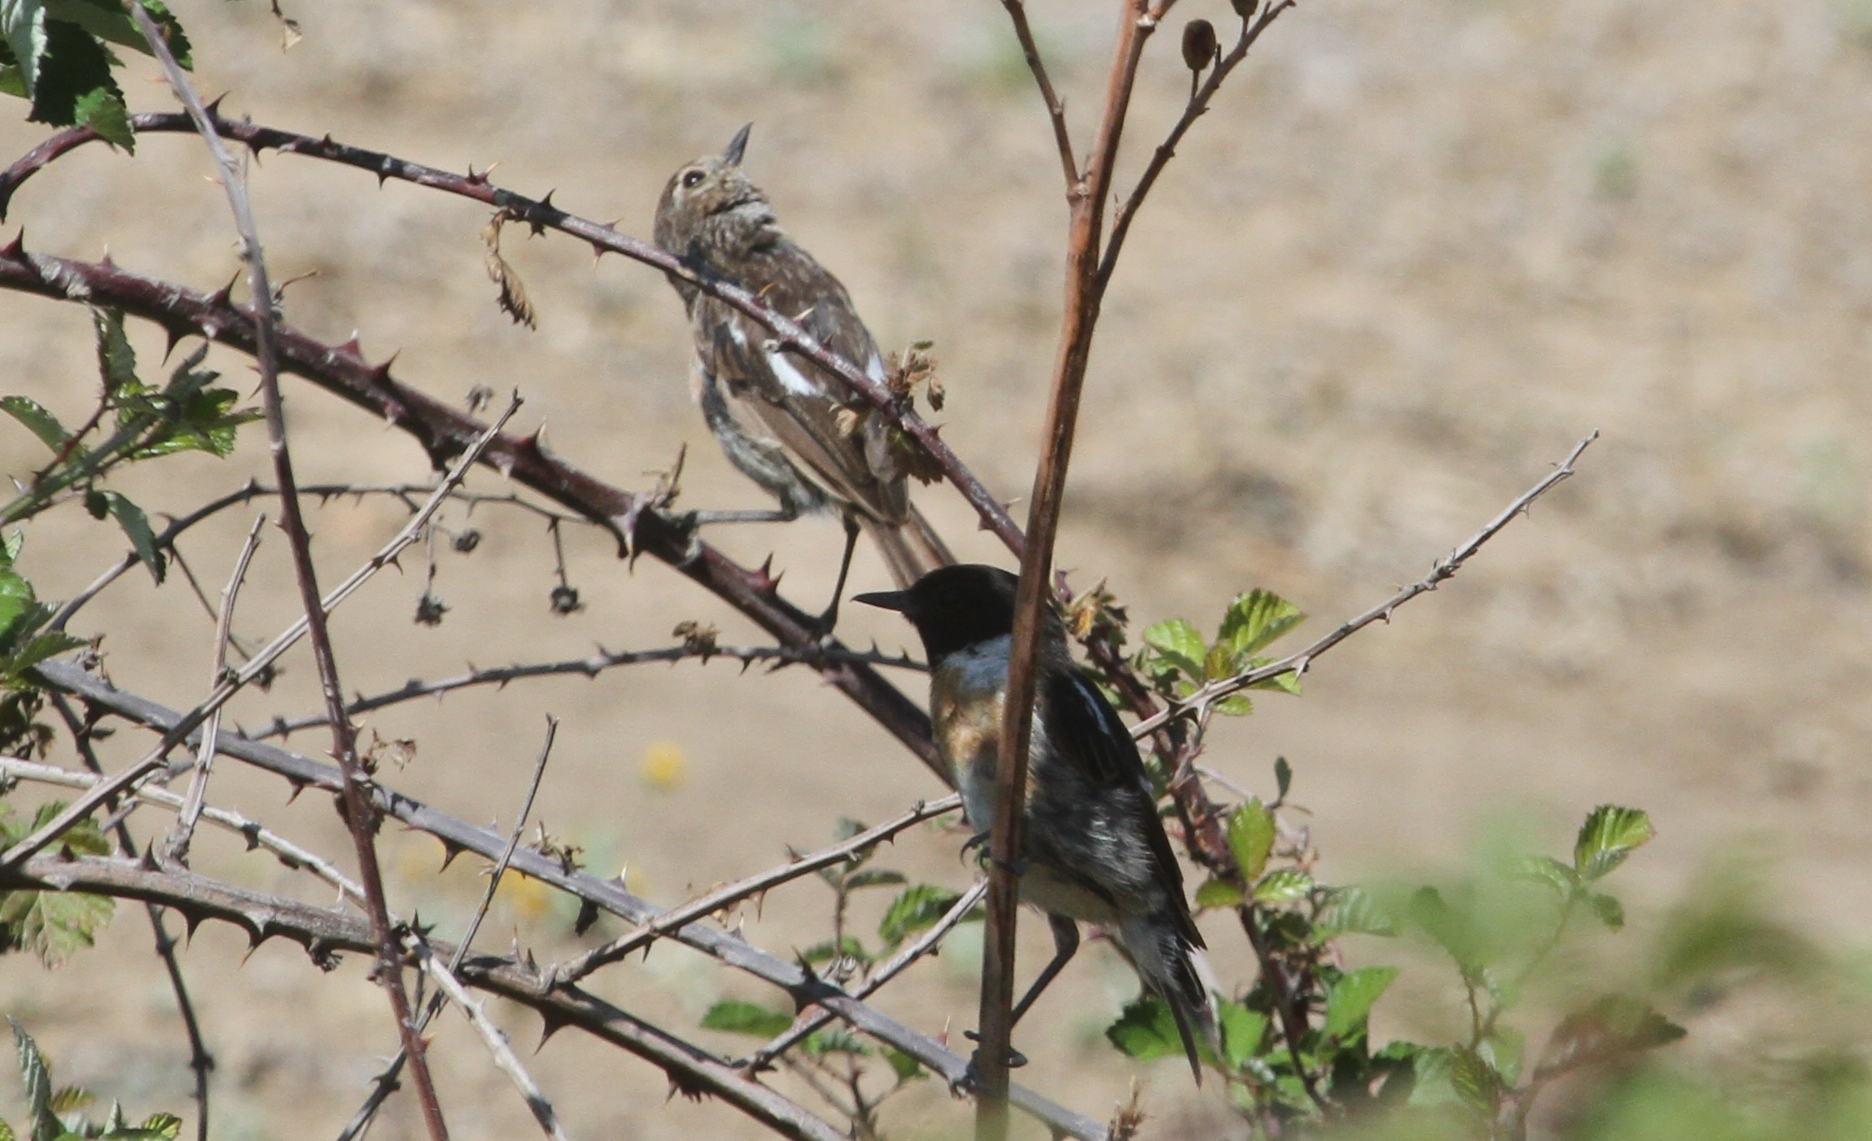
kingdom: Animalia
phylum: Chordata
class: Aves
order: Passeriformes
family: Muscicapidae
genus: Saxicola
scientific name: Saxicola rubicola
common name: European stonechat
